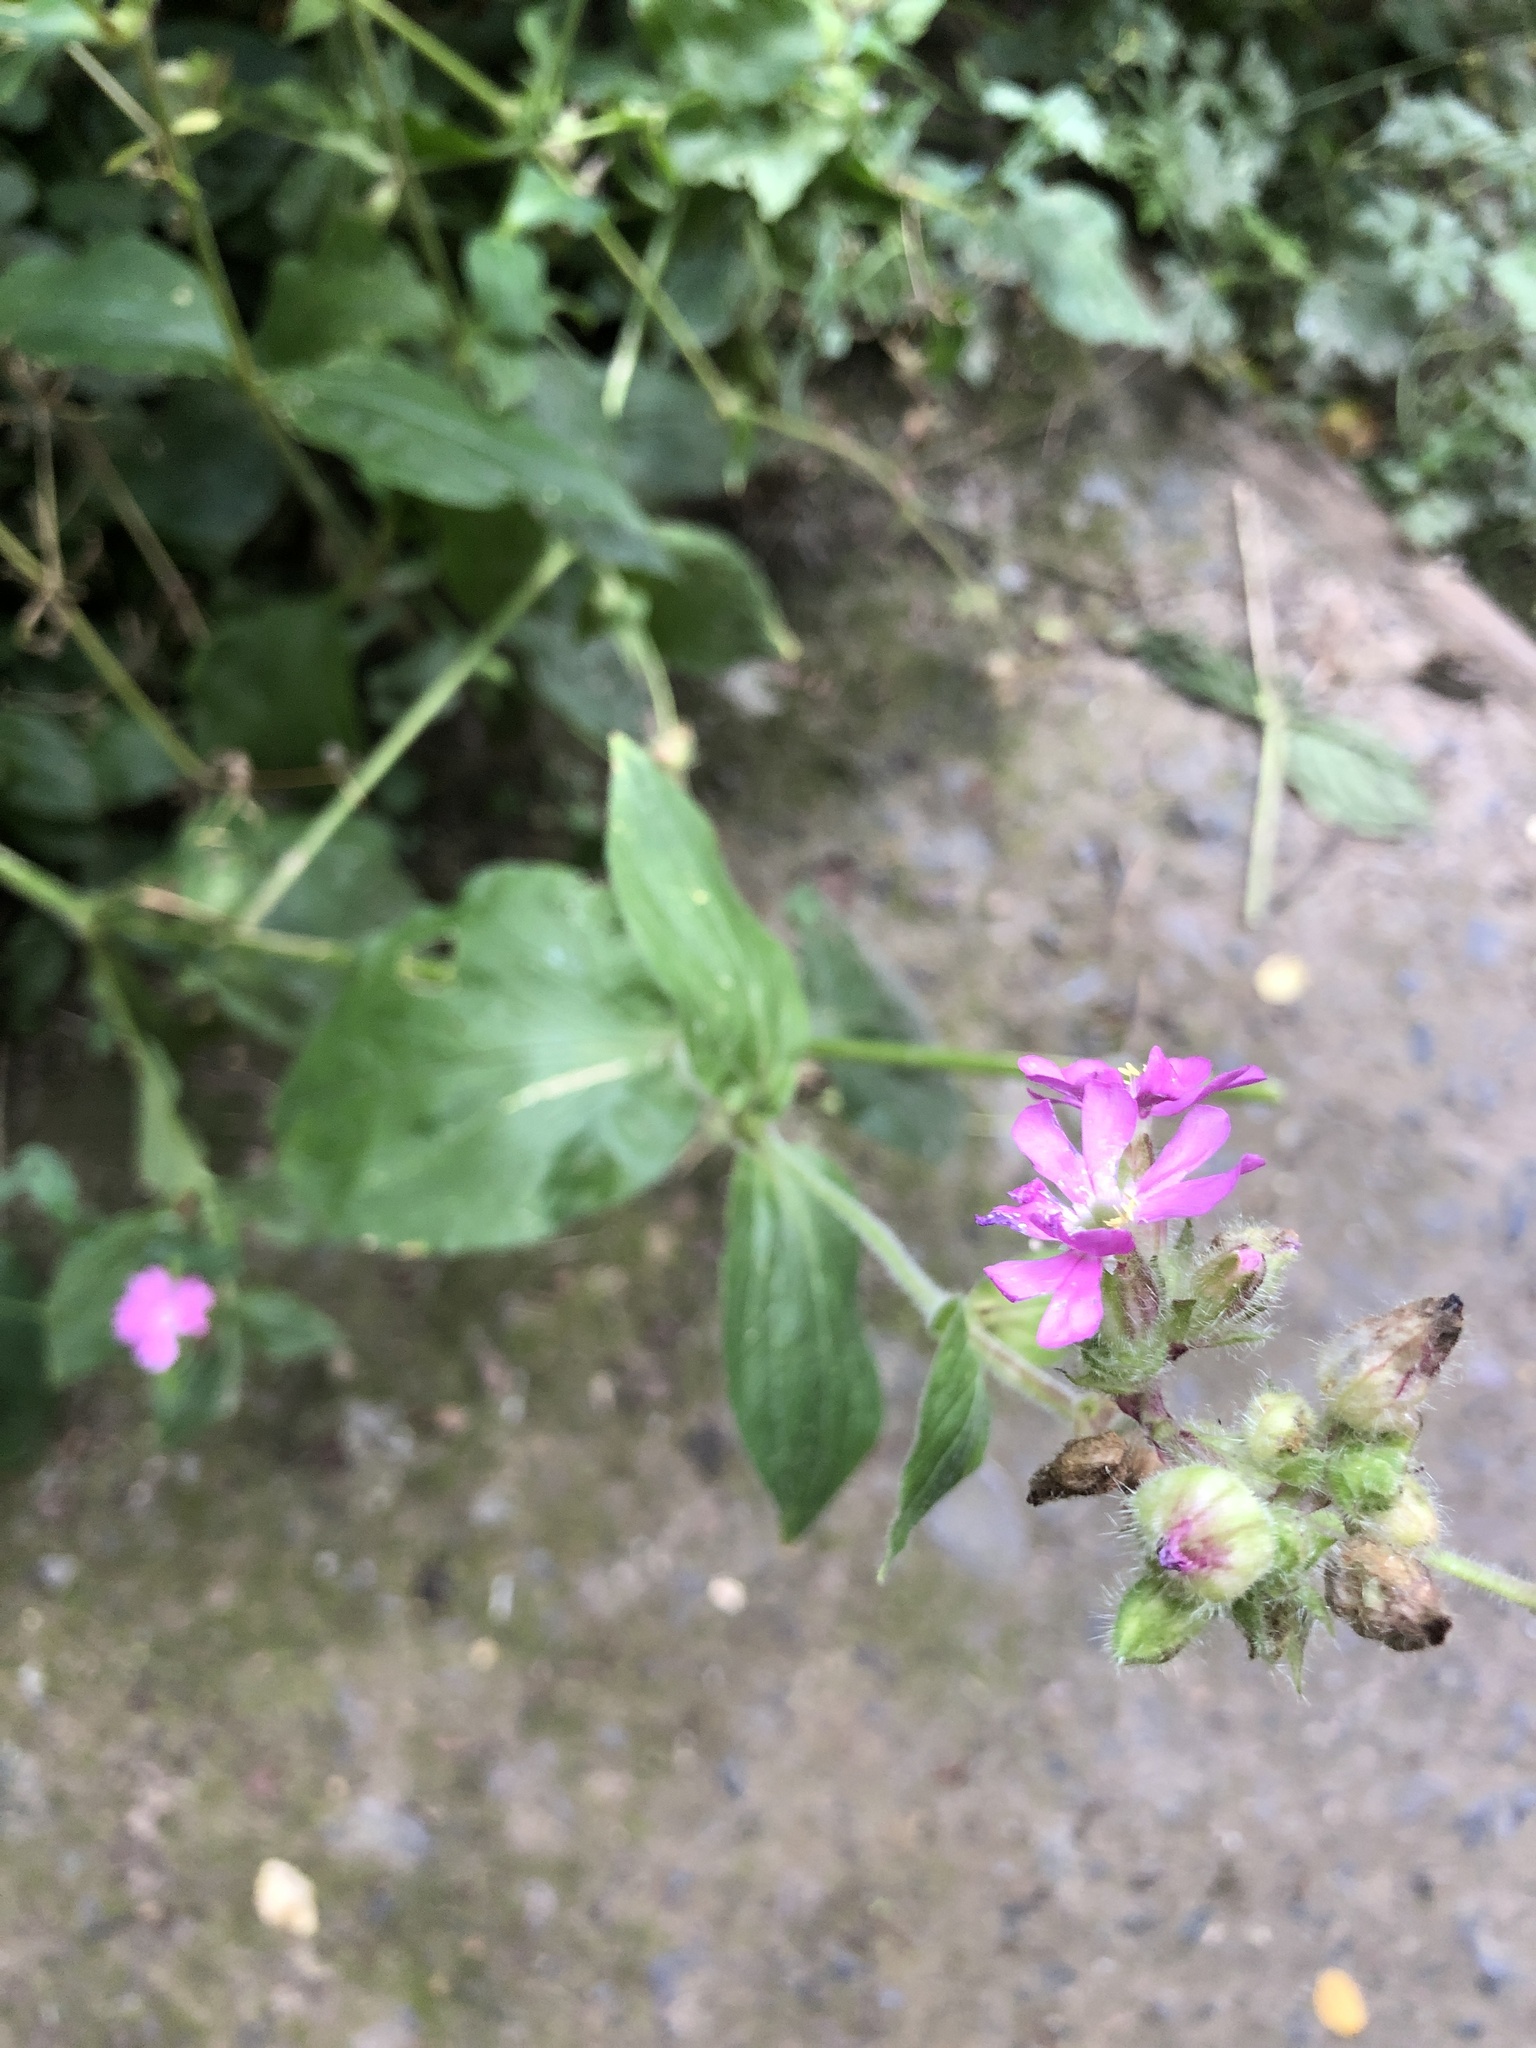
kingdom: Plantae
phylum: Tracheophyta
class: Magnoliopsida
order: Caryophyllales
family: Caryophyllaceae
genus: Silene
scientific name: Silene dioica
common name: Red campion
